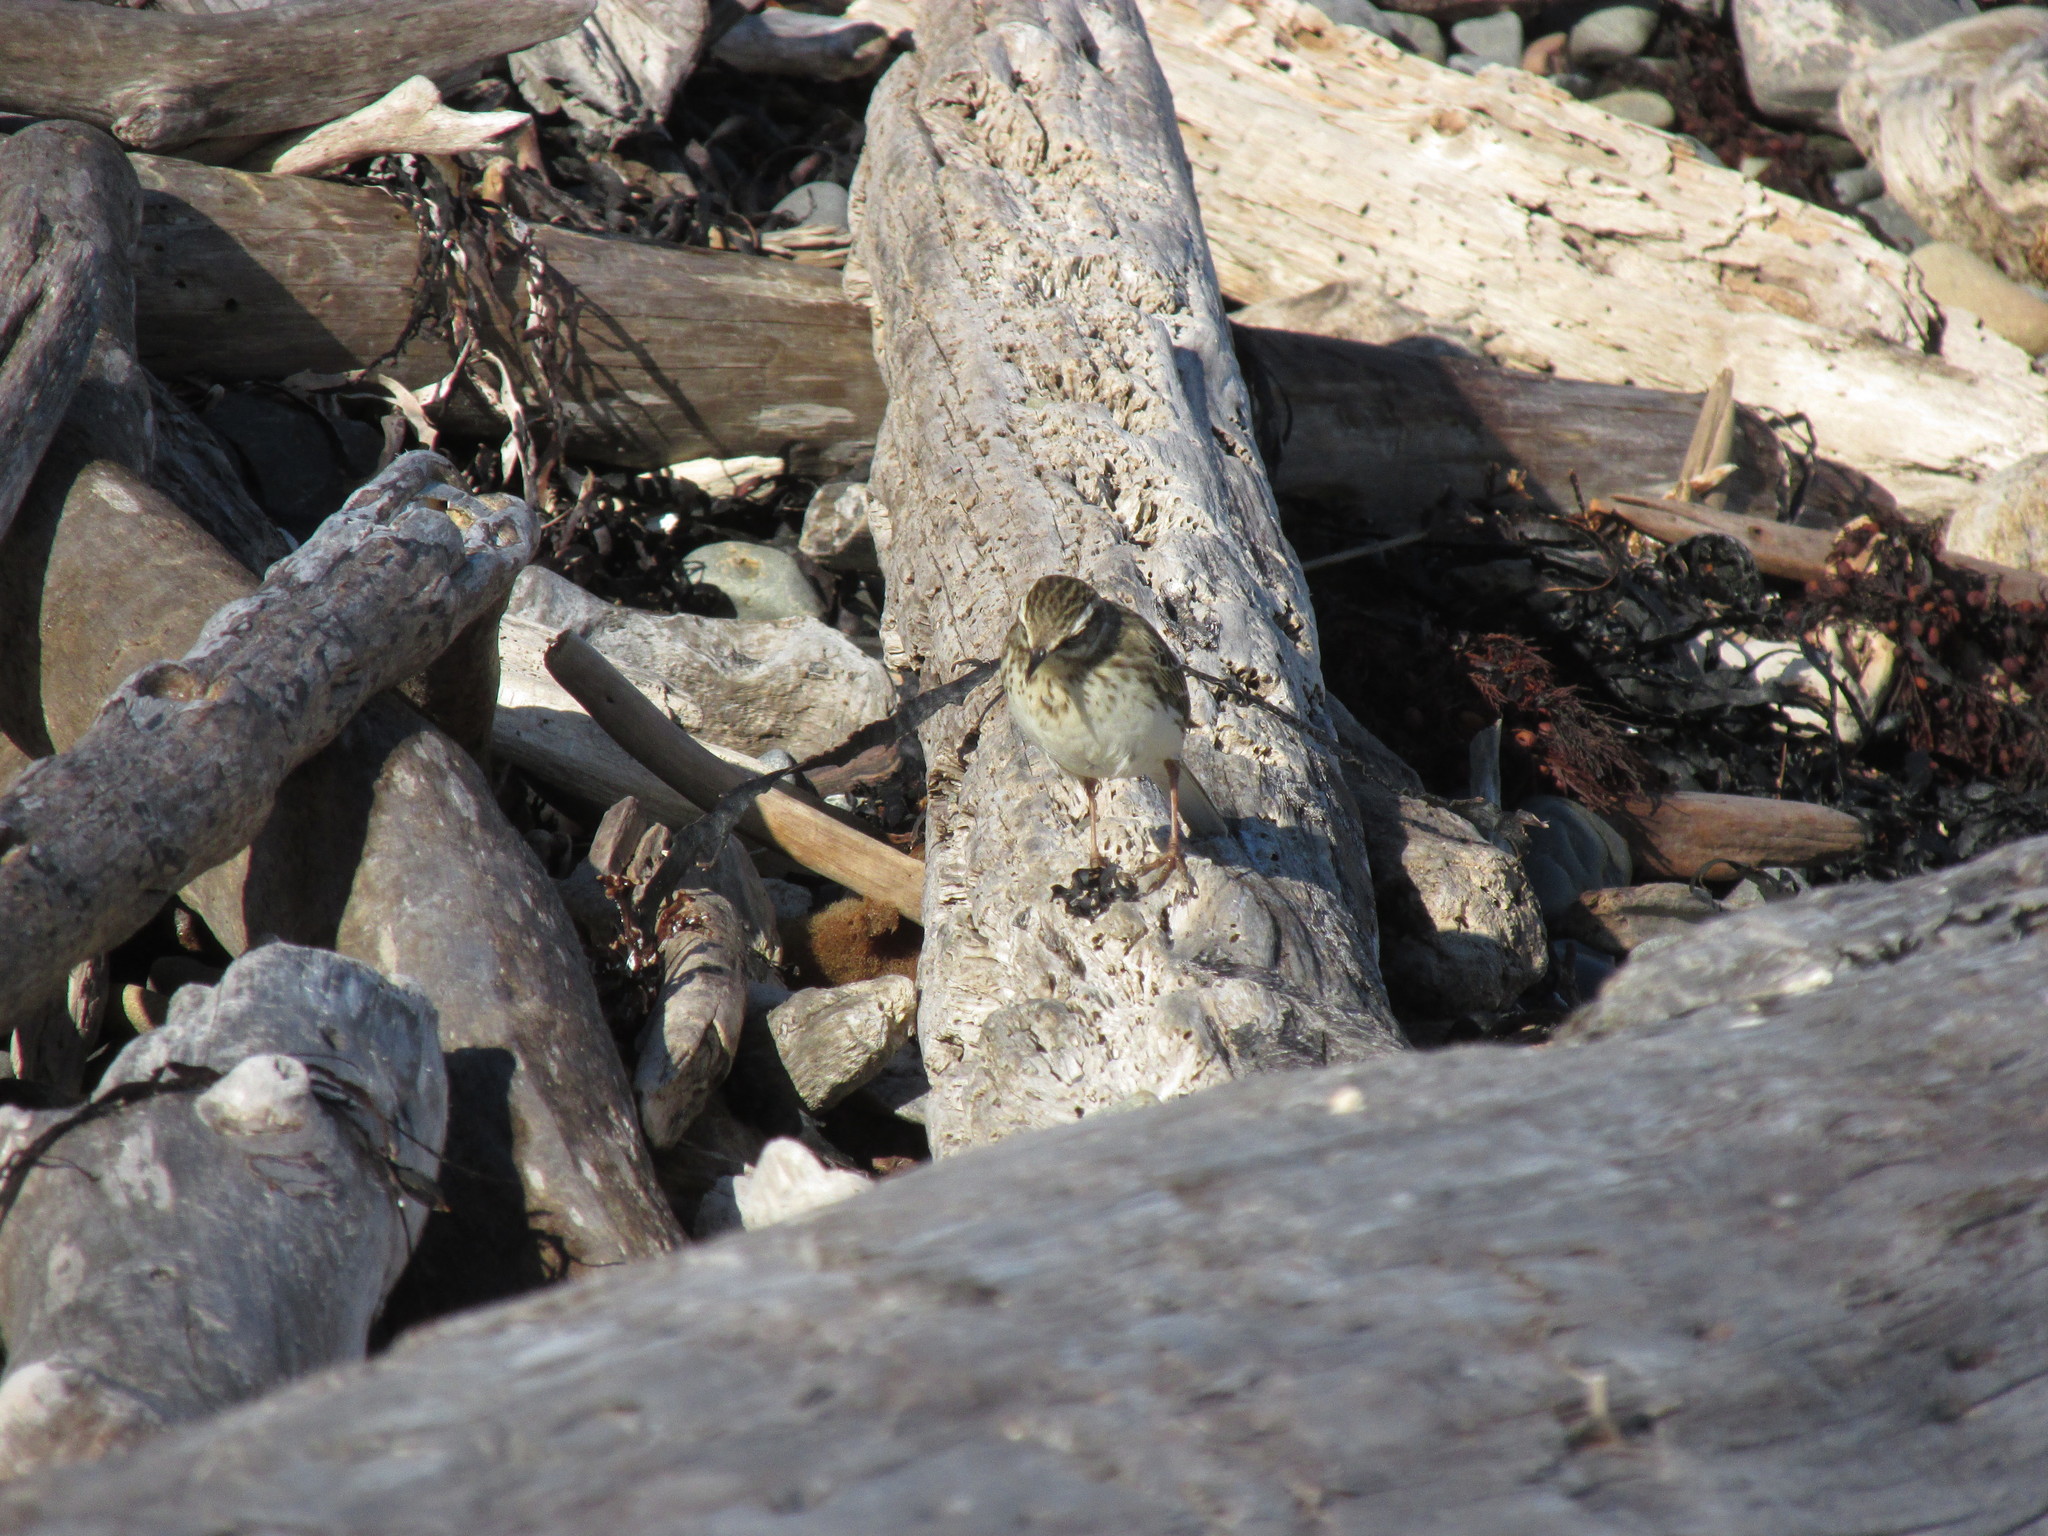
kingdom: Animalia
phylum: Chordata
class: Aves
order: Passeriformes
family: Motacillidae
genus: Anthus
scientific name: Anthus novaeseelandiae
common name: New zealand pipit
